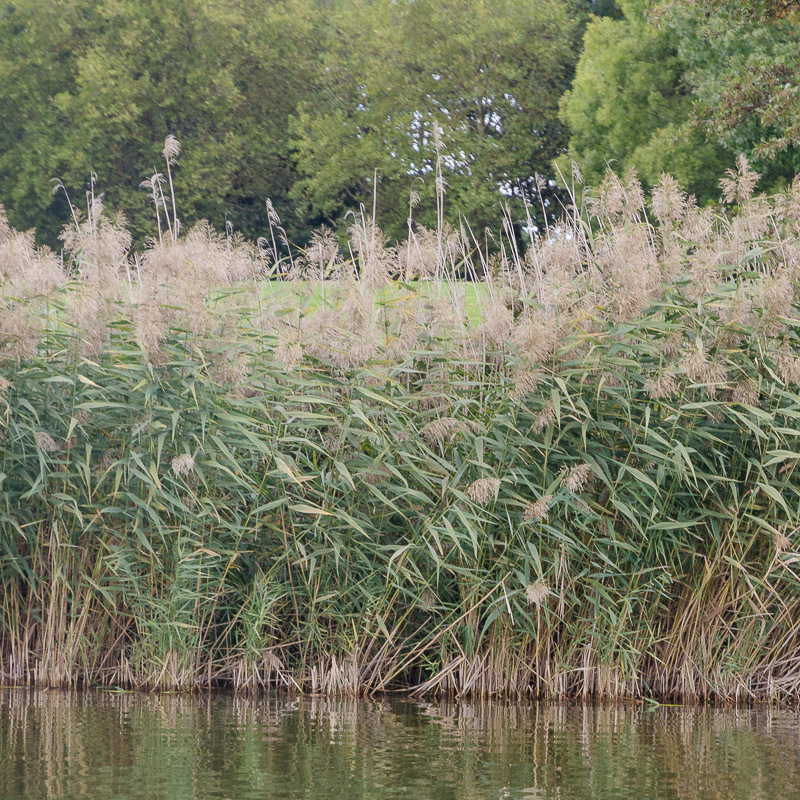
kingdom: Plantae
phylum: Tracheophyta
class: Liliopsida
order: Poales
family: Poaceae
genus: Phragmites
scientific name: Phragmites australis
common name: Common reed
